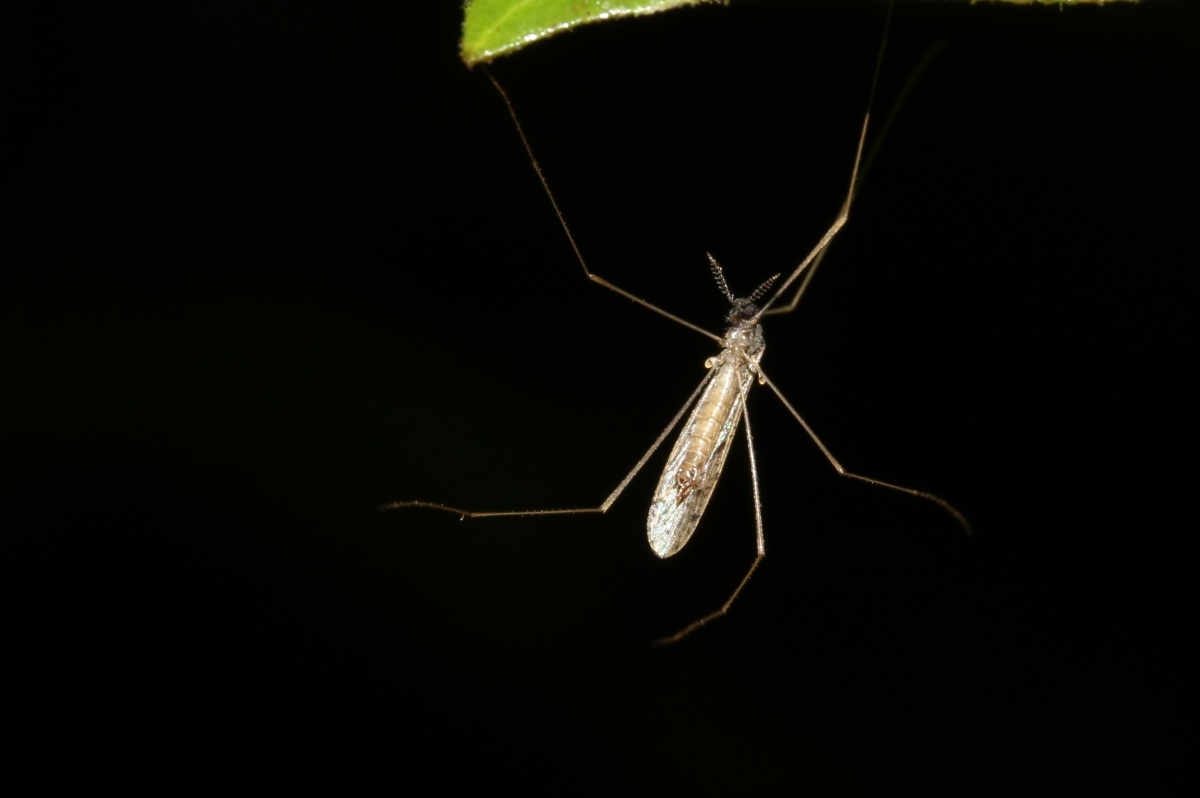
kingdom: Animalia
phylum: Arthropoda
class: Insecta
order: Diptera
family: Limoniidae
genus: Rhipidia
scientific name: Rhipidia
